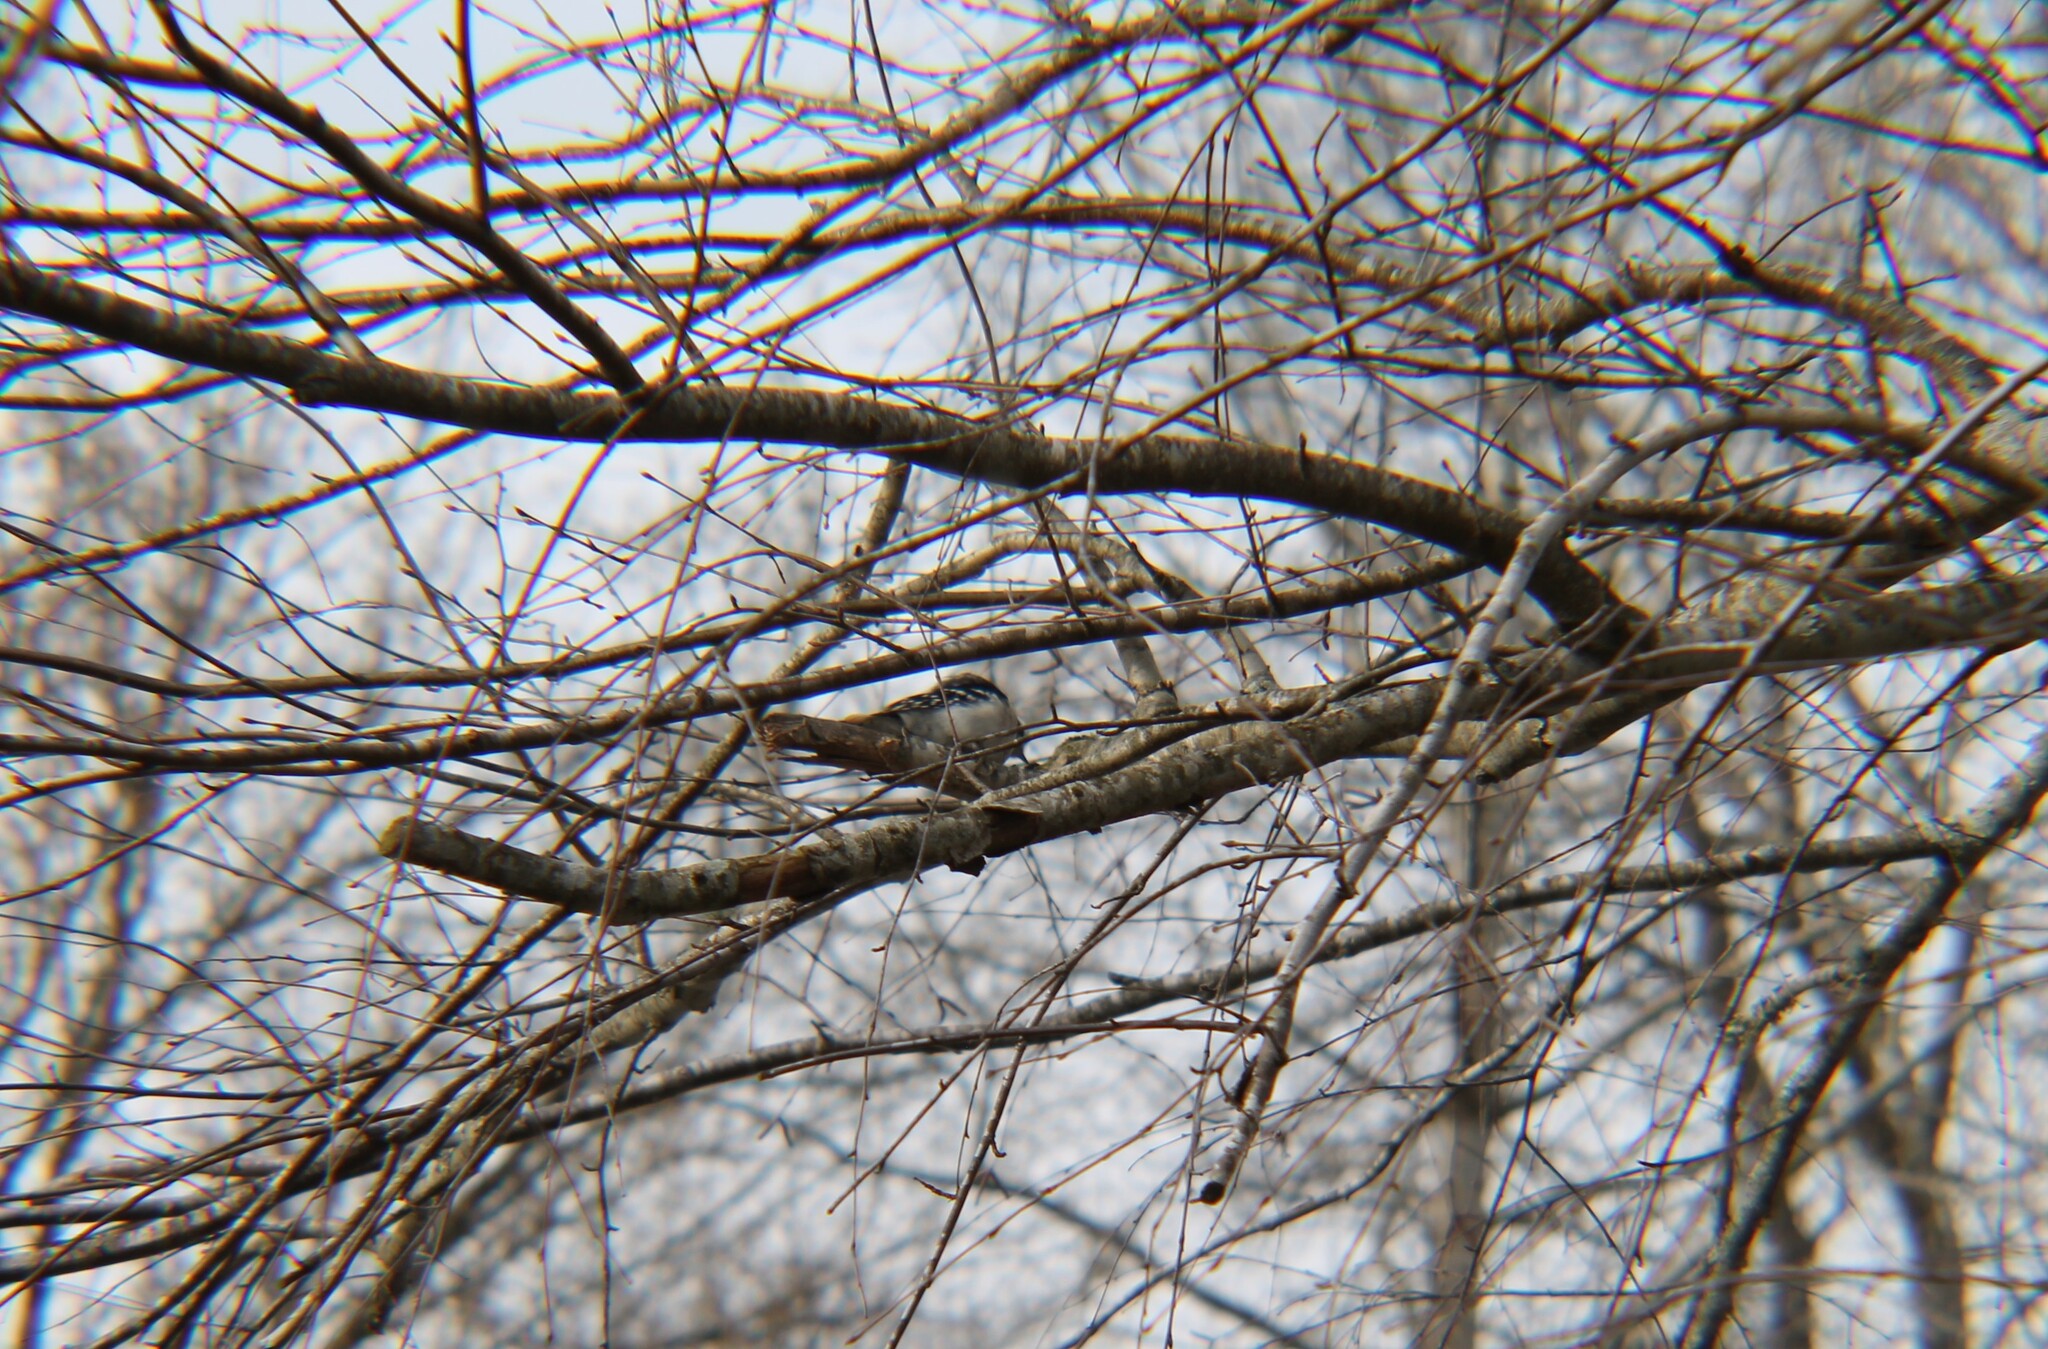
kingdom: Animalia
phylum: Chordata
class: Aves
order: Piciformes
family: Picidae
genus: Dryobates
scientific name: Dryobates pubescens
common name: Downy woodpecker
